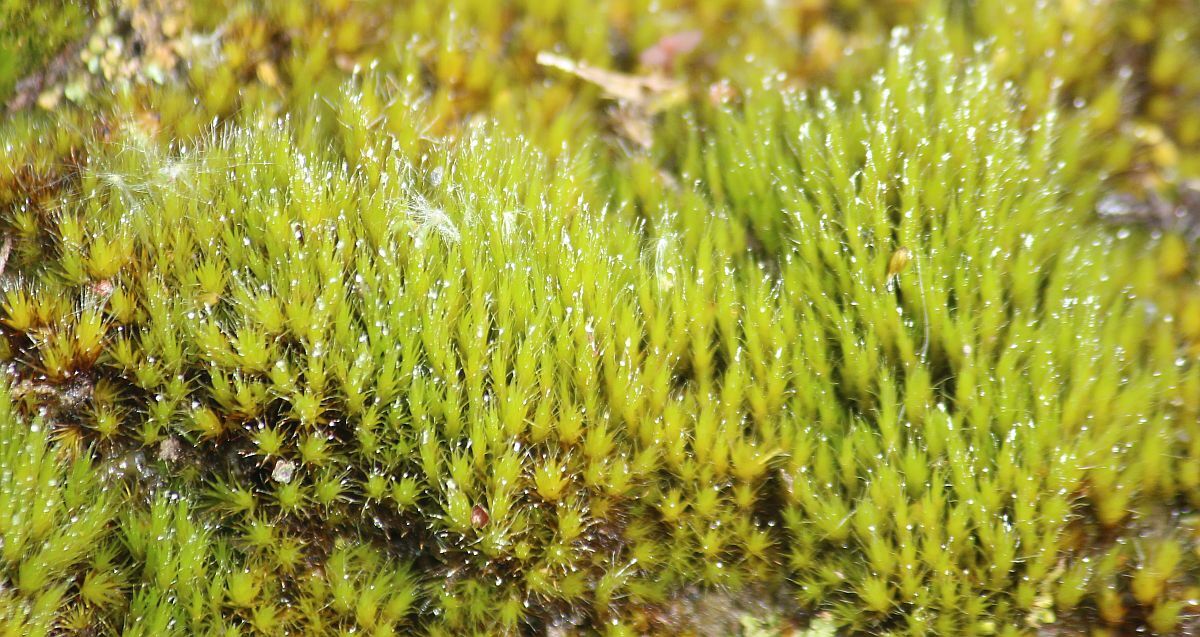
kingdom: Plantae
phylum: Bryophyta
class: Bryopsida
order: Dicranales
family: Leucobryaceae
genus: Campylopus
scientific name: Campylopus introflexus
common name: Heath star moss
